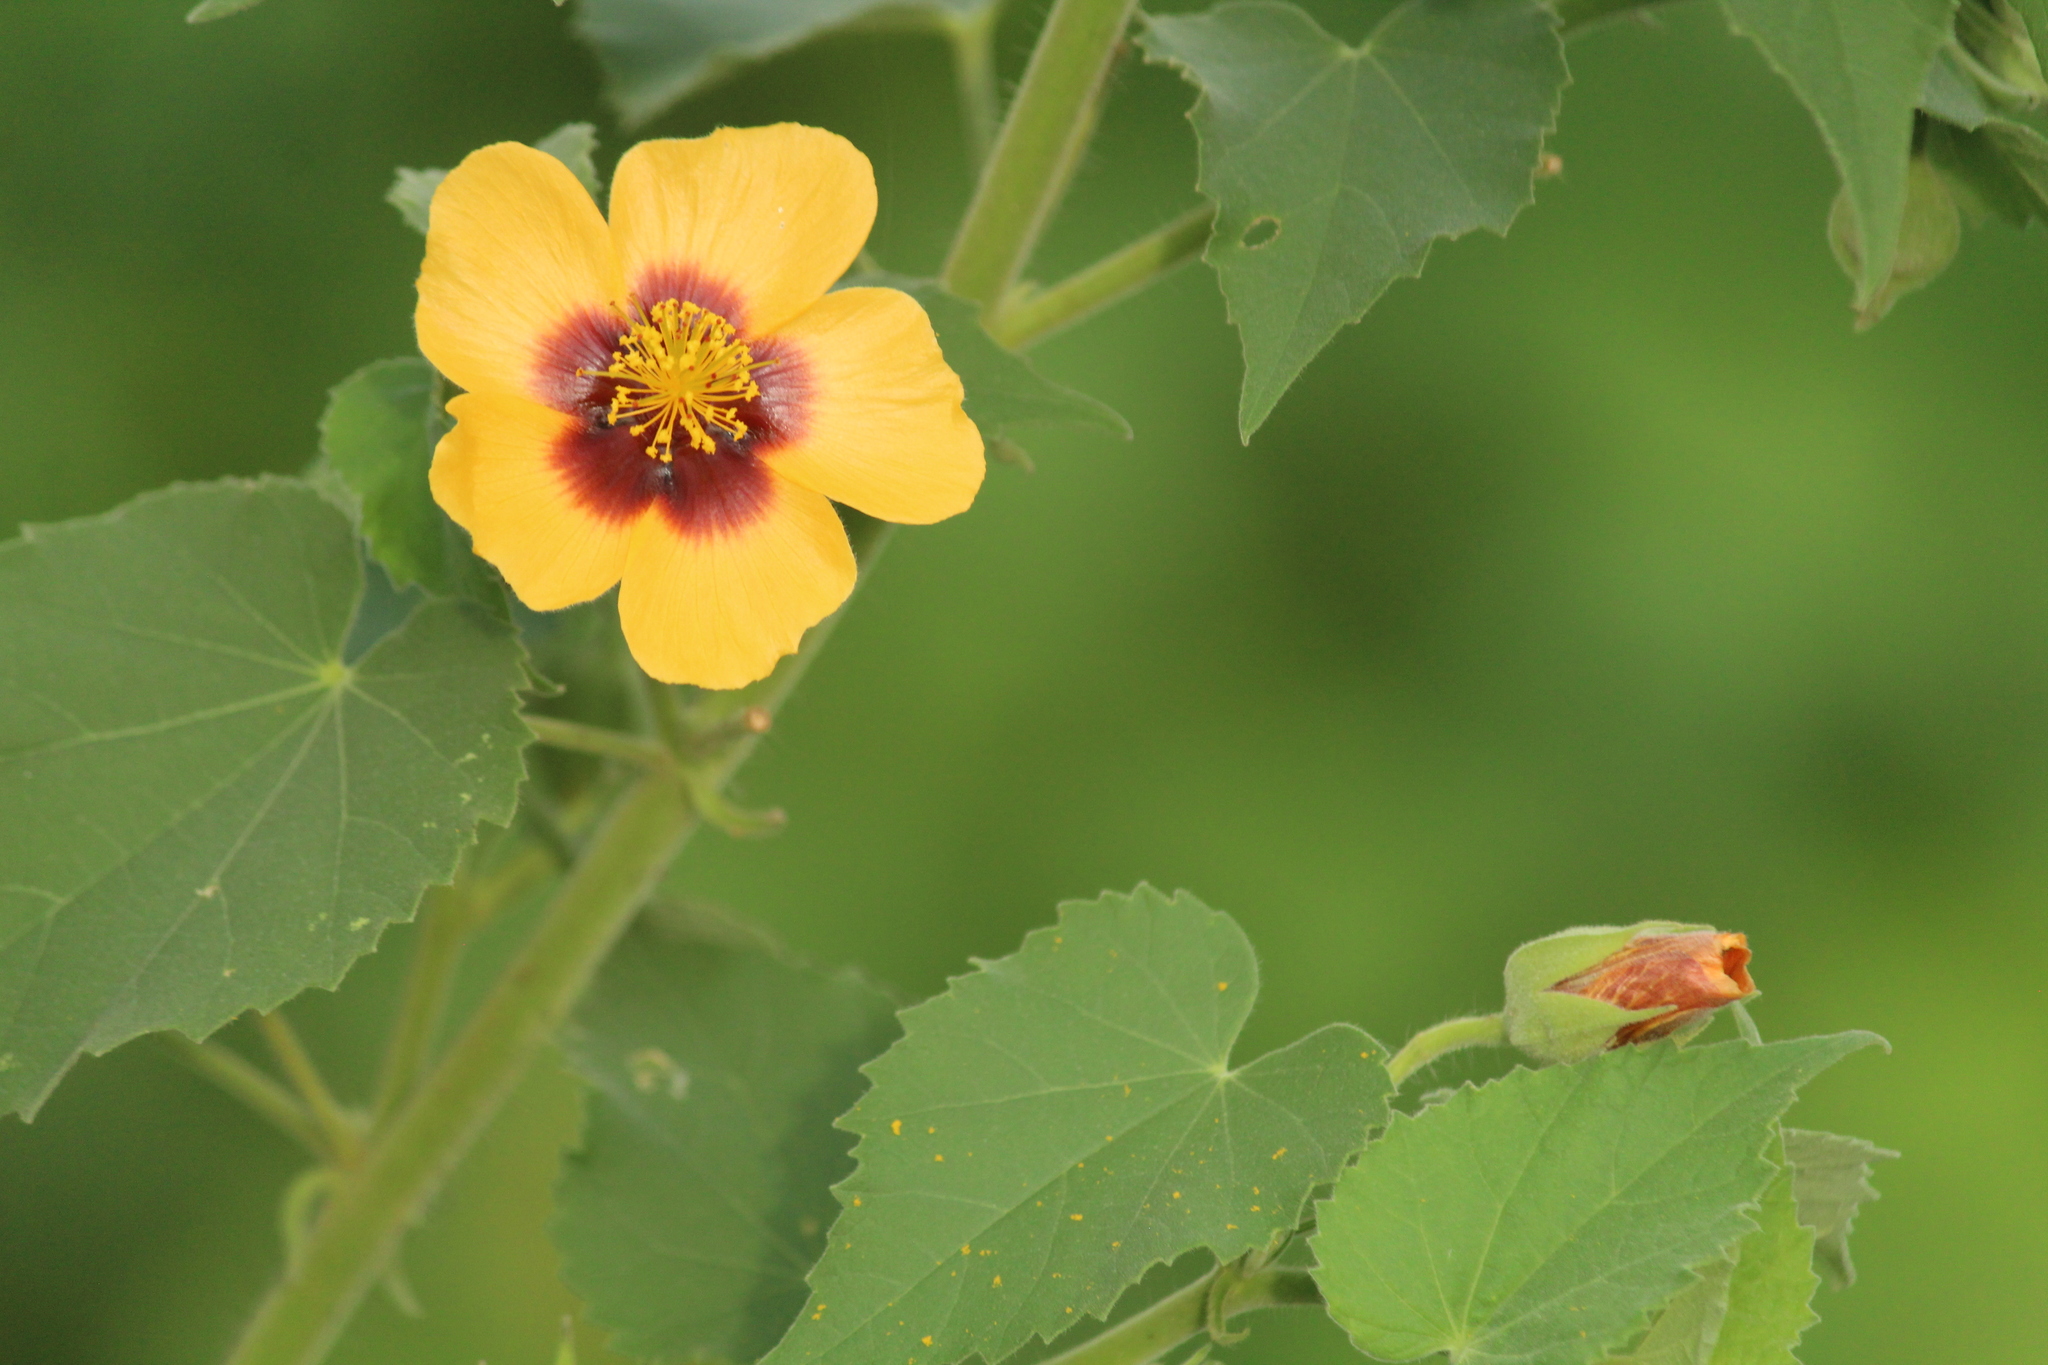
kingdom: Plantae
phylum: Tracheophyta
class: Magnoliopsida
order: Malvales
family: Malvaceae
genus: Abutilon
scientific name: Abutilon hirtum
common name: Florida keys indian mallow
